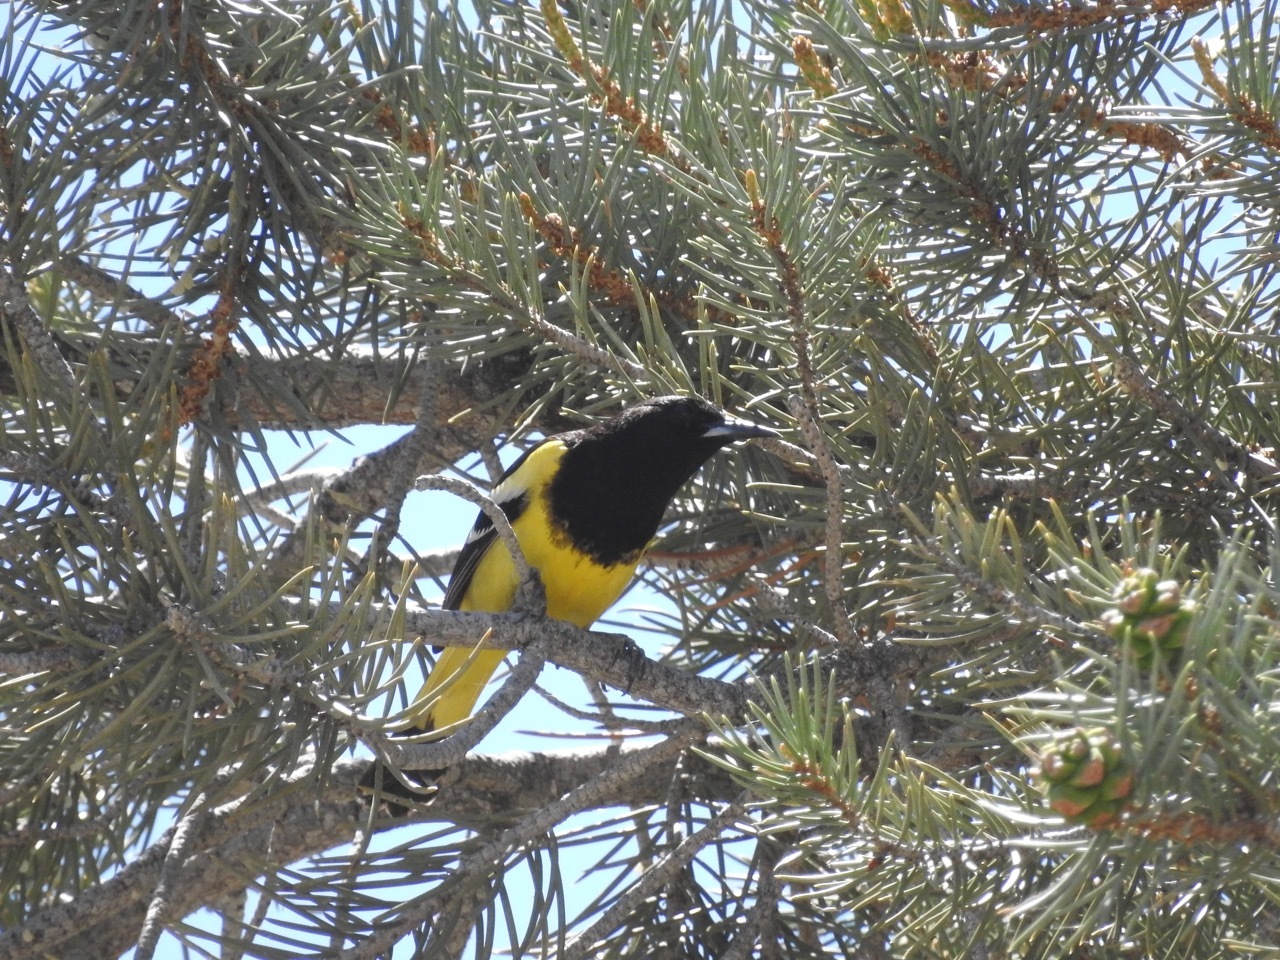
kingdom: Animalia
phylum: Chordata
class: Aves
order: Passeriformes
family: Icteridae
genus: Icterus
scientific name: Icterus parisorum
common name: Scott's oriole
